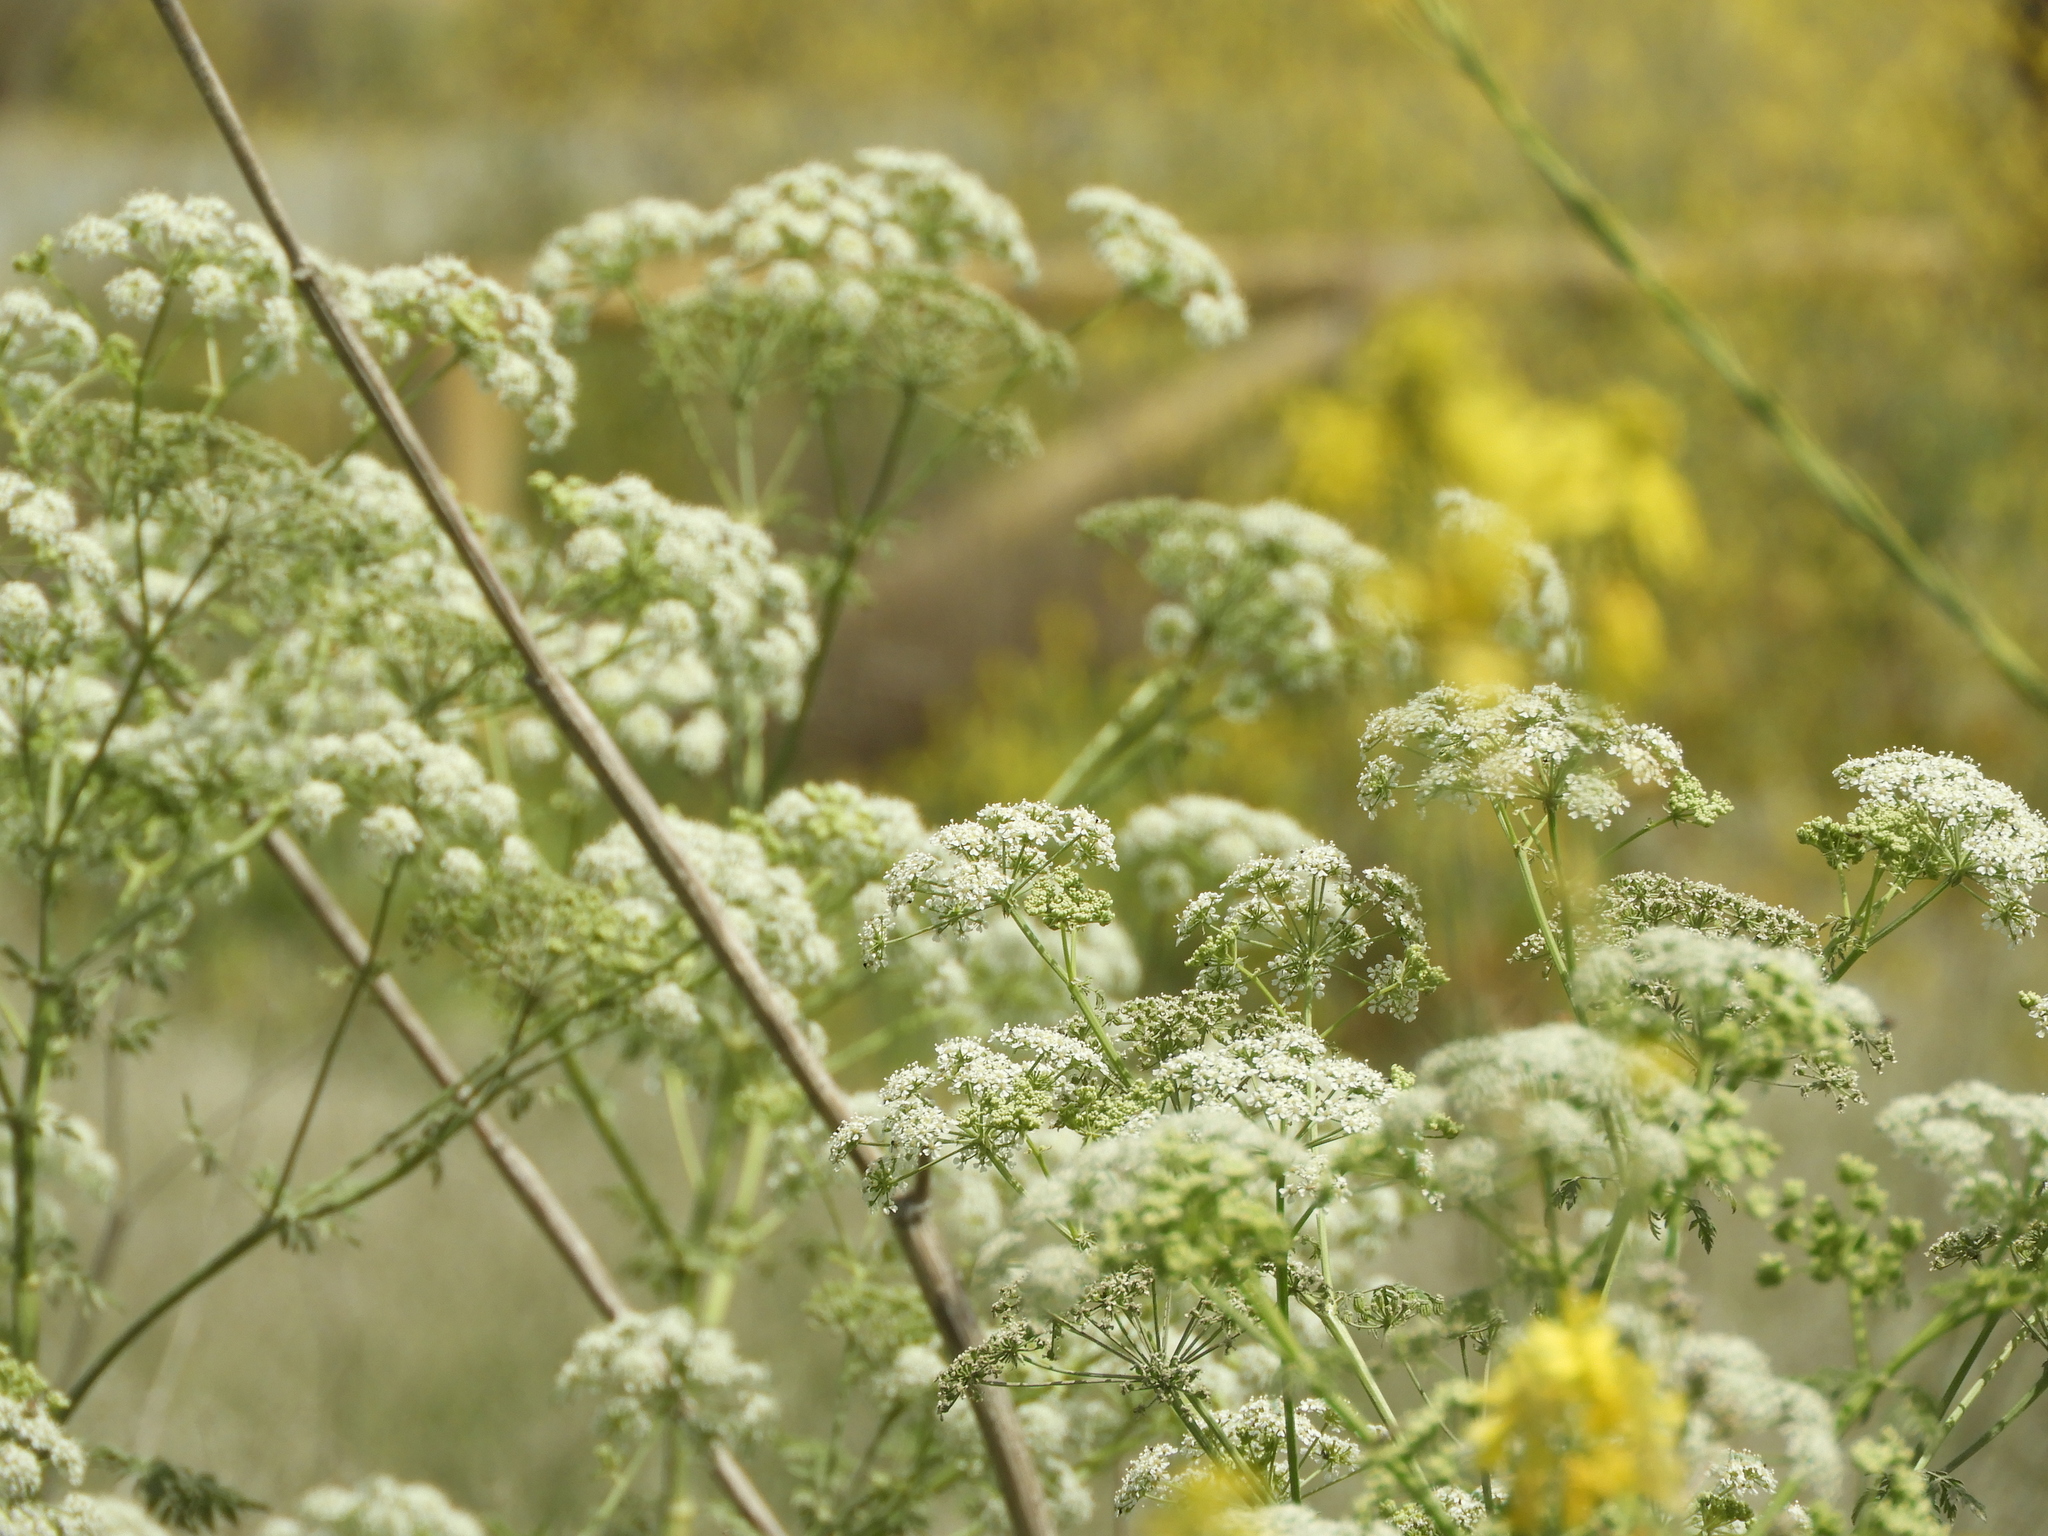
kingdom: Plantae
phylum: Tracheophyta
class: Magnoliopsida
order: Apiales
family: Apiaceae
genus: Conium
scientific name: Conium maculatum
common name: Hemlock
